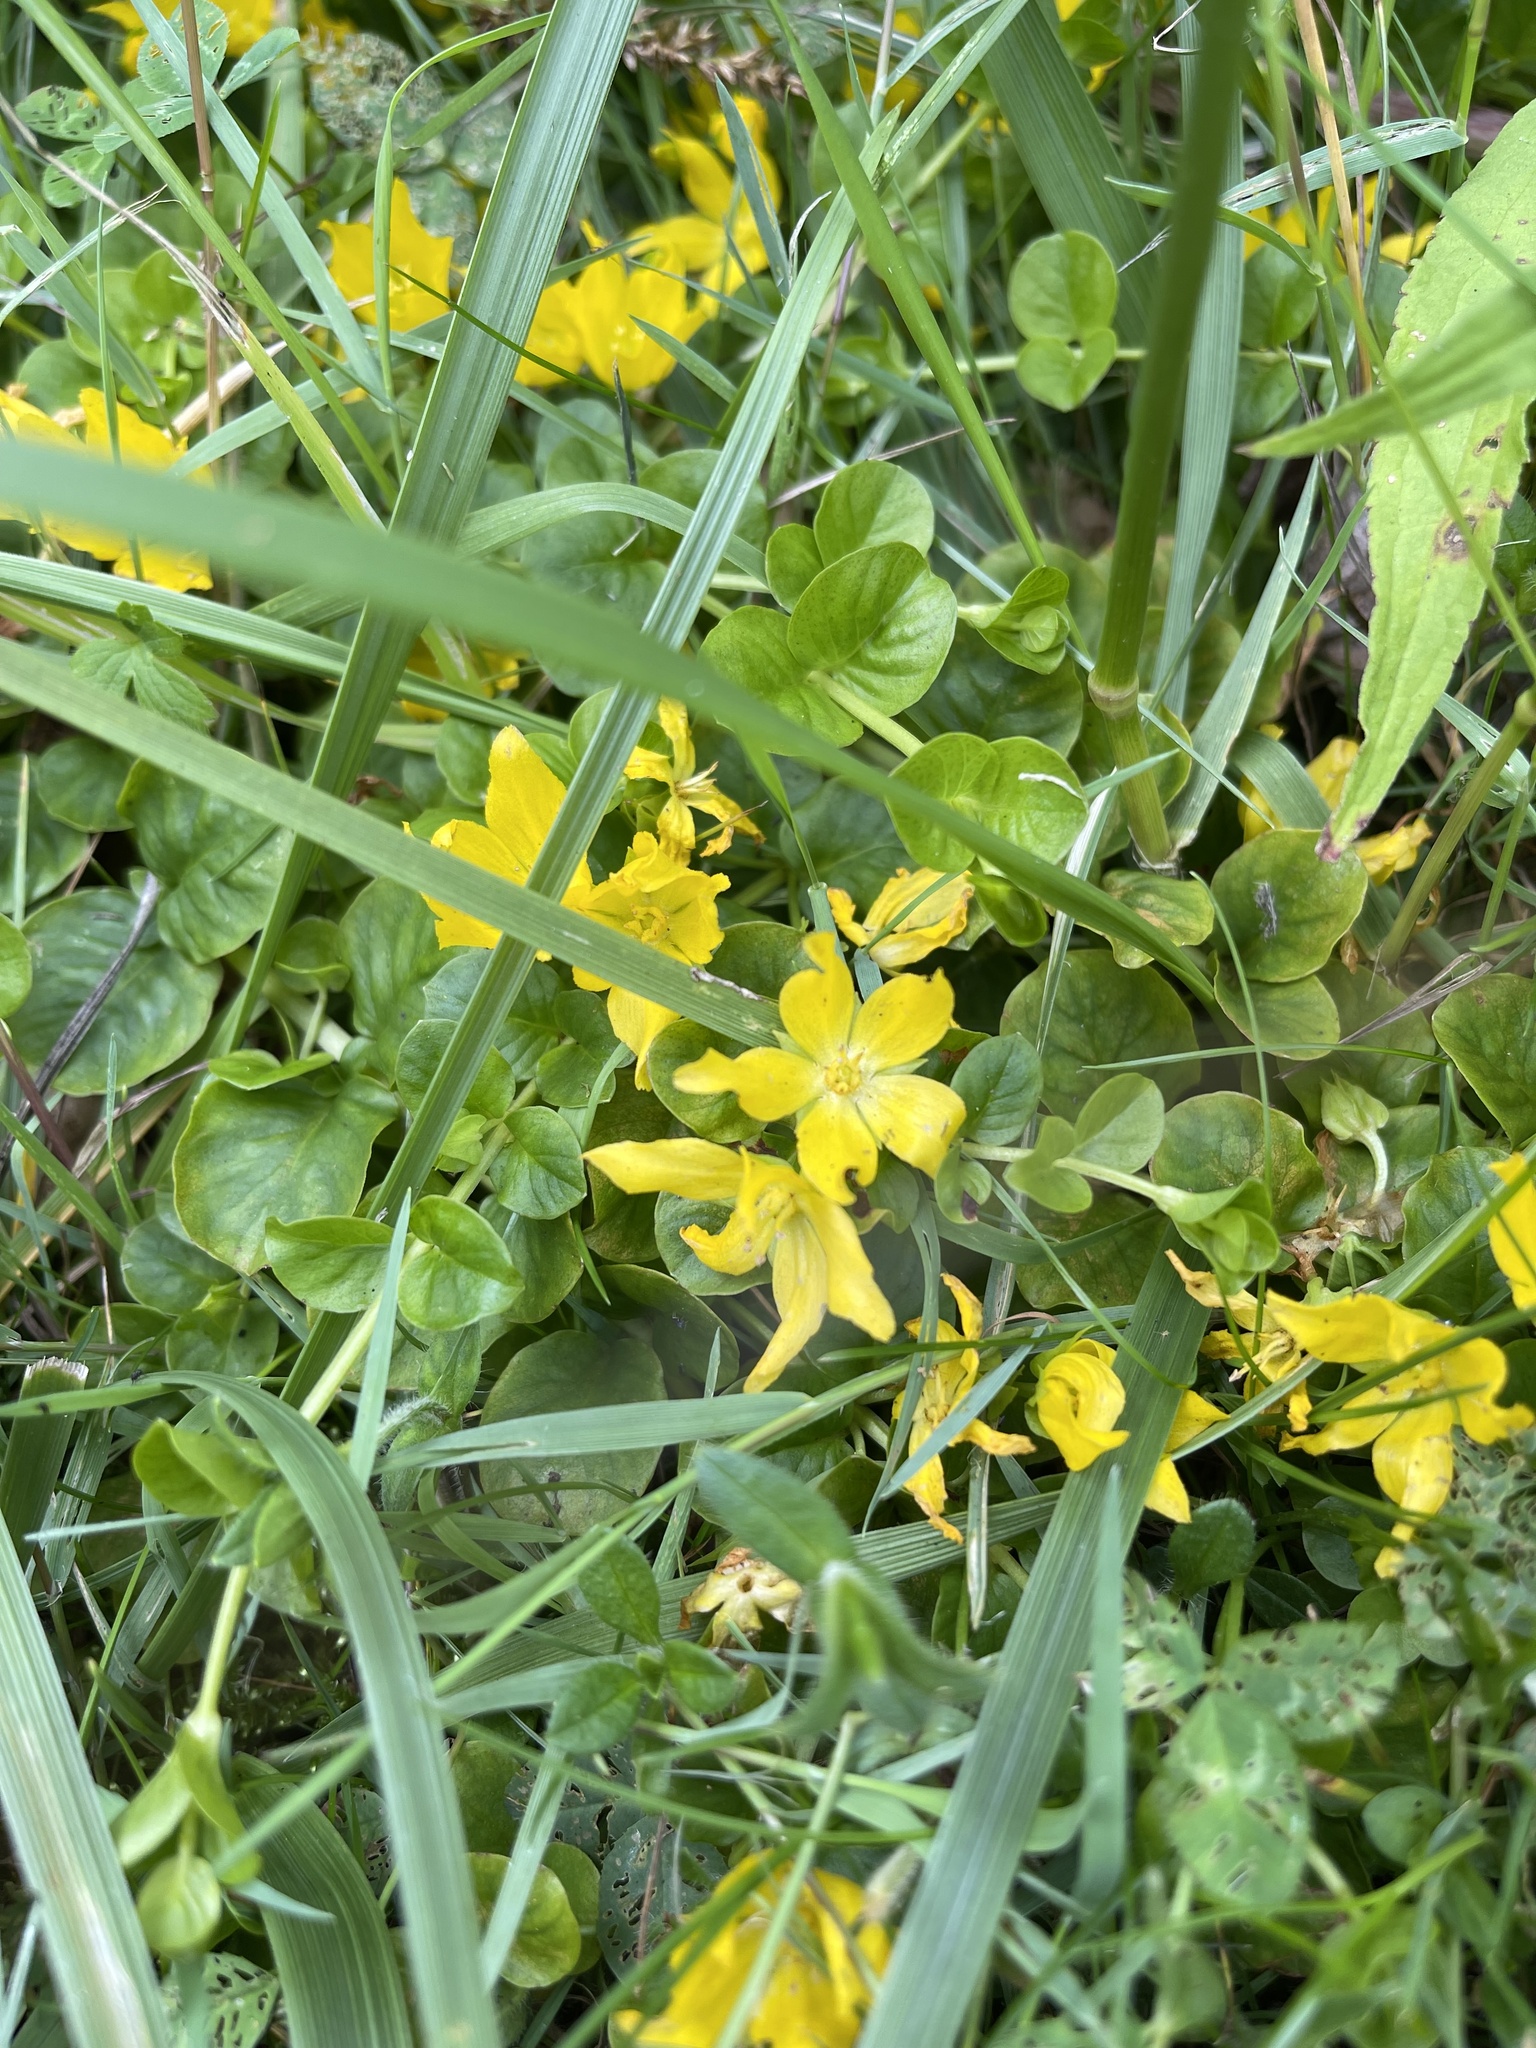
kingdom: Plantae
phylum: Tracheophyta
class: Magnoliopsida
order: Ericales
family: Primulaceae
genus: Lysimachia
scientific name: Lysimachia nummularia
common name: Moneywort
